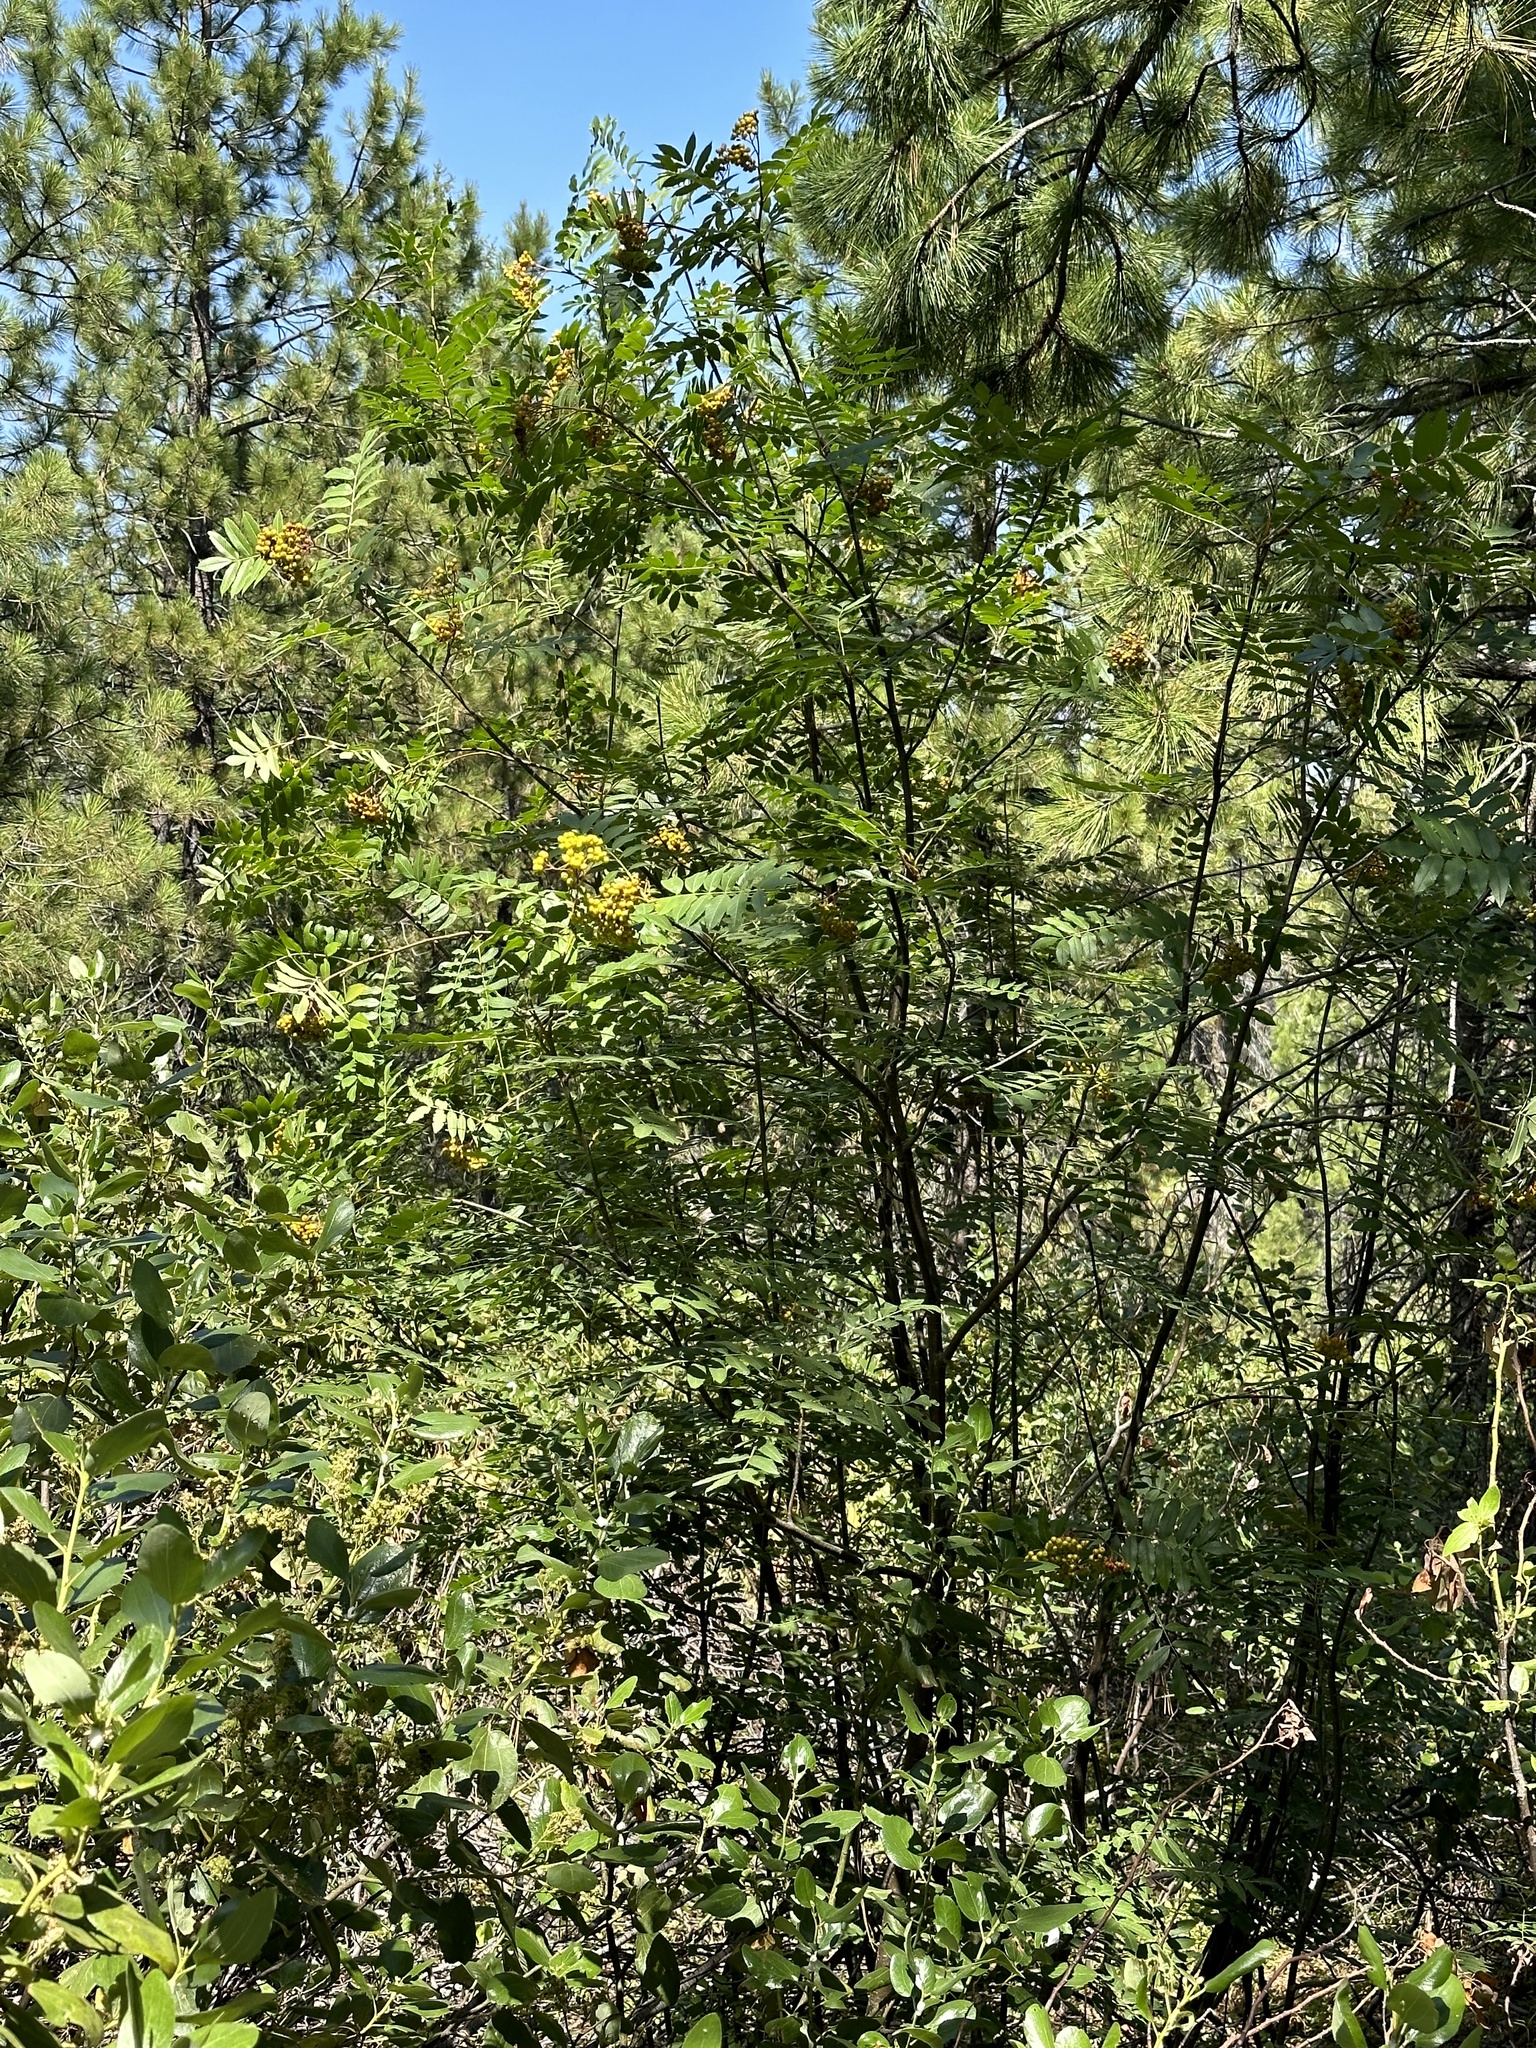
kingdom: Plantae
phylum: Tracheophyta
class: Magnoliopsida
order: Rosales
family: Rosaceae
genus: Sorbus
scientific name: Sorbus scopulina
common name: Greene's mountain-ash
